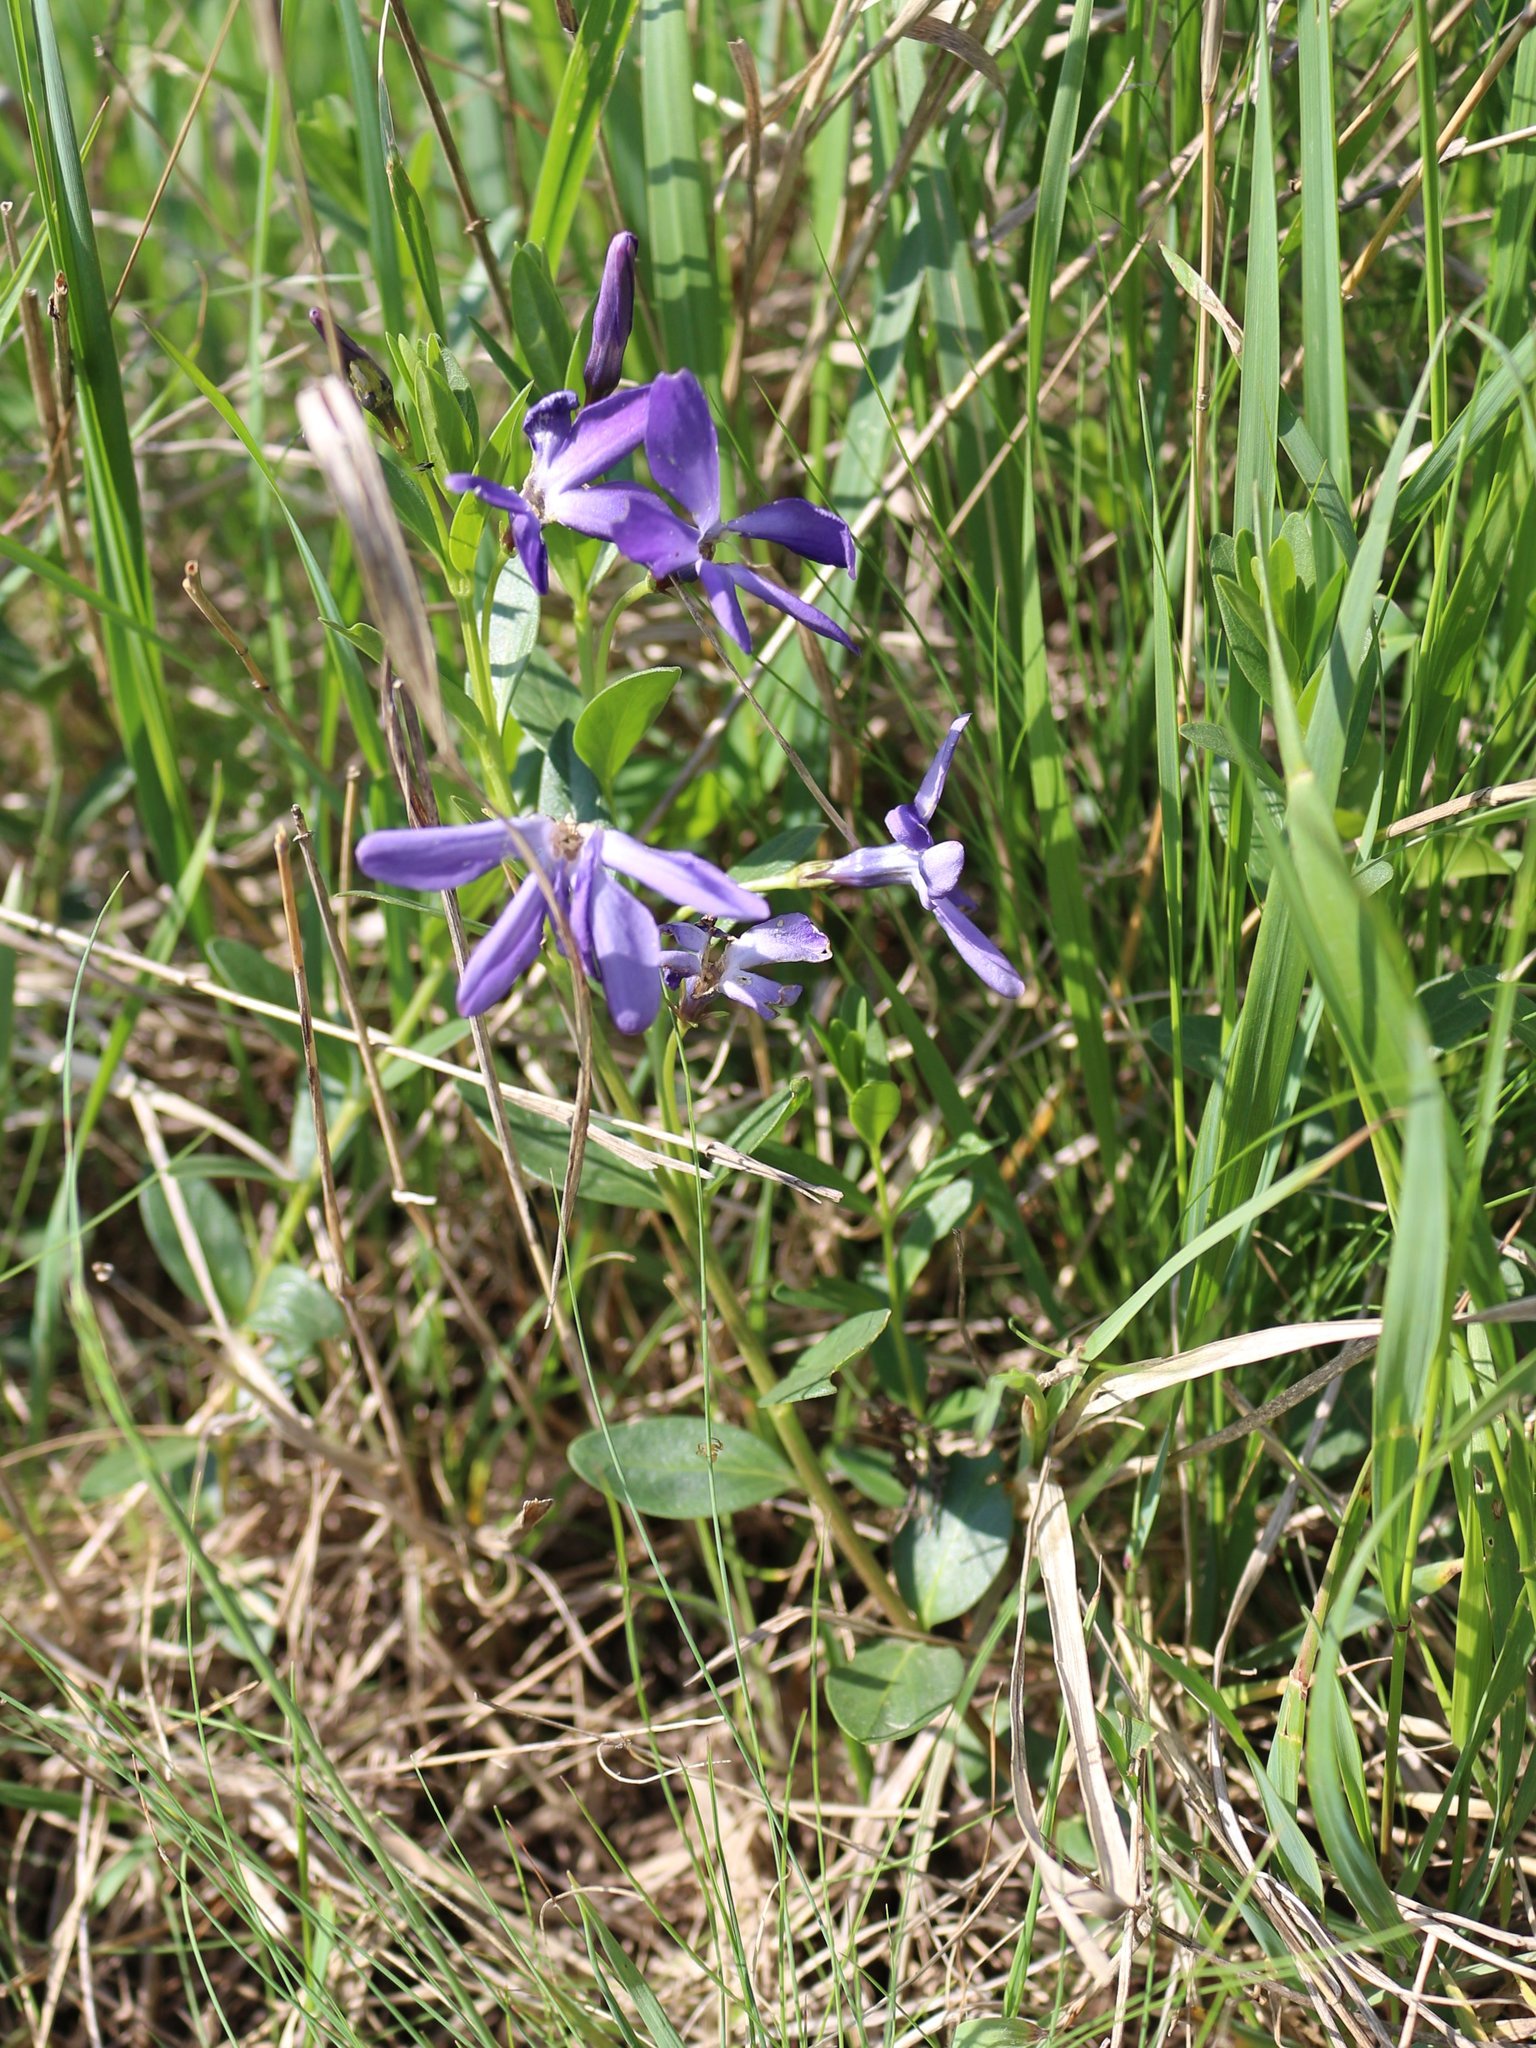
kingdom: Plantae
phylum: Tracheophyta
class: Magnoliopsida
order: Gentianales
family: Apocynaceae
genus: Vinca
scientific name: Vinca herbacea
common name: Herbaceous periwinkle
